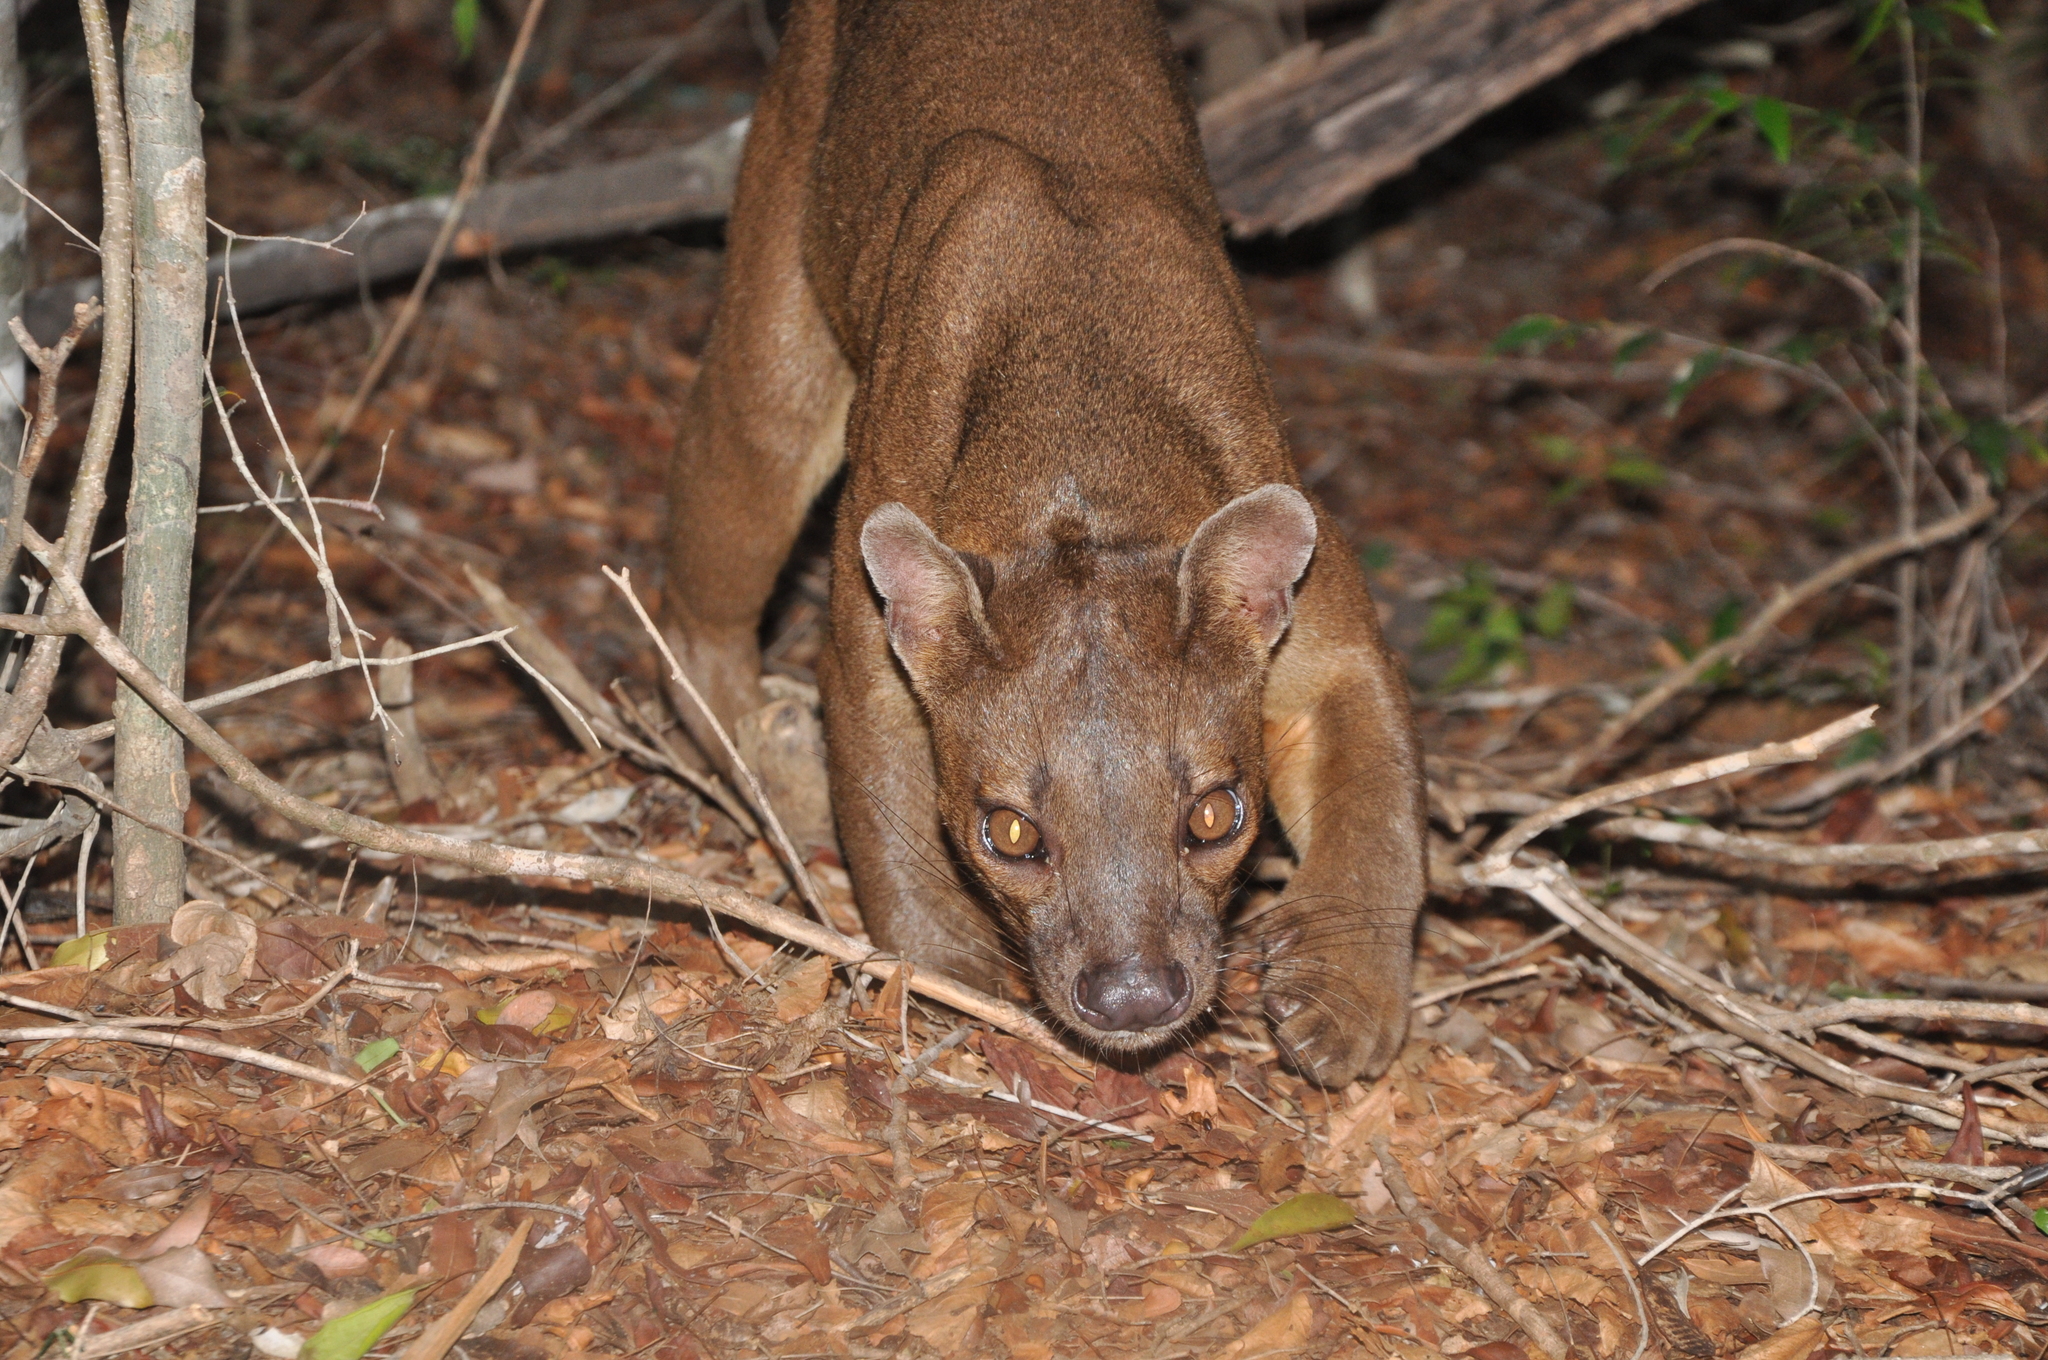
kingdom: Animalia
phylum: Chordata
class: Mammalia
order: Carnivora
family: Eupleridae
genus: Cryptoprocta
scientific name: Cryptoprocta ferox
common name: Fossa
